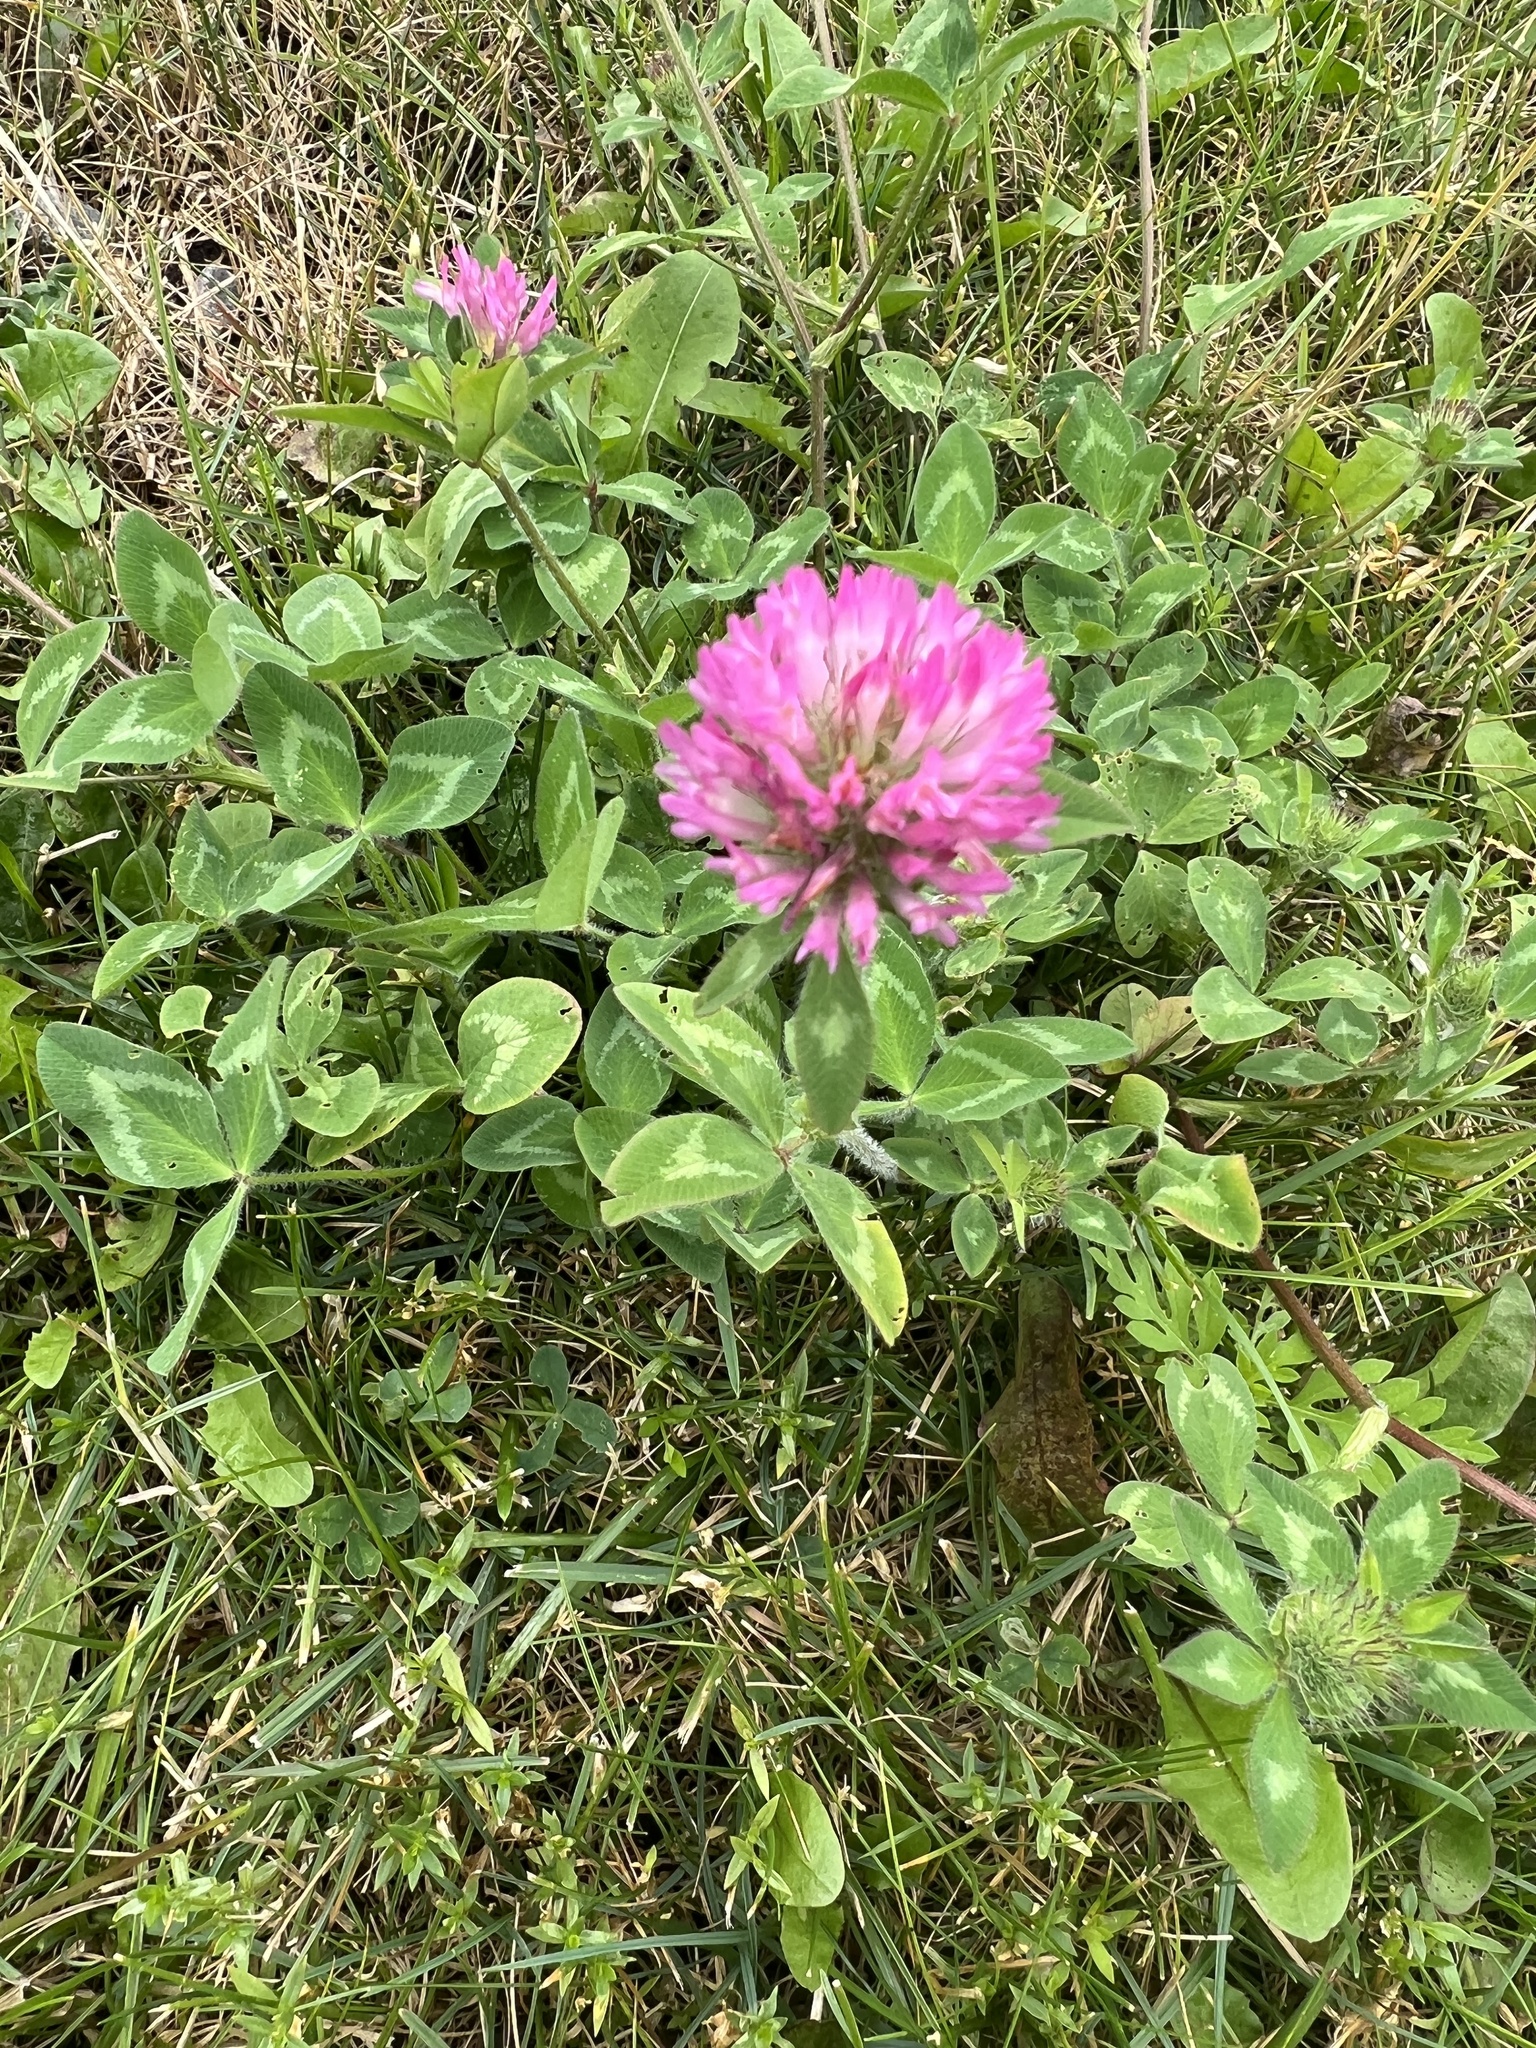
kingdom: Plantae
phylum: Tracheophyta
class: Magnoliopsida
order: Fabales
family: Fabaceae
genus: Trifolium
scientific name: Trifolium pratense
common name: Red clover
